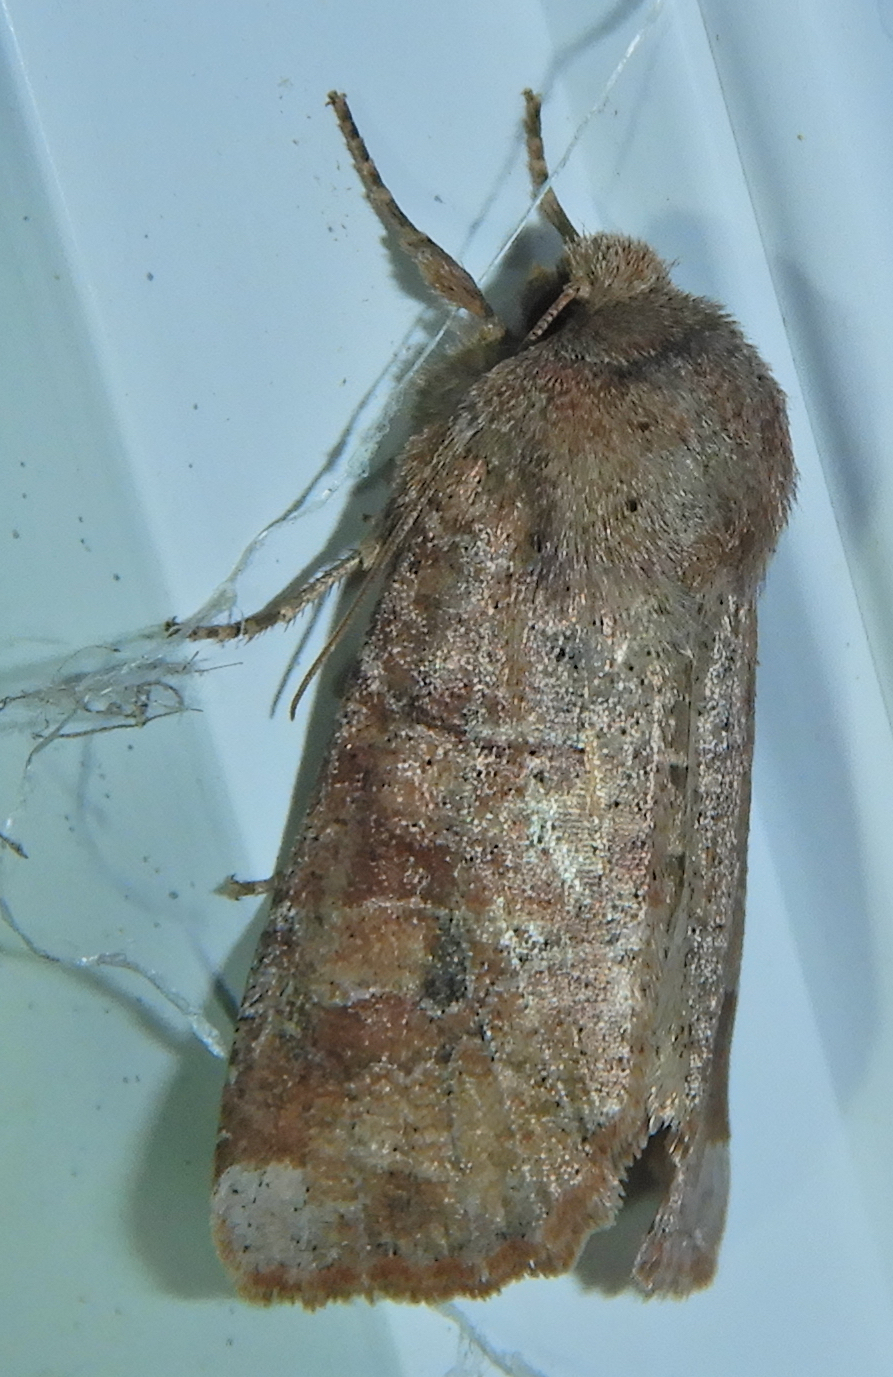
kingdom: Animalia
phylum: Arthropoda
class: Insecta
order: Lepidoptera
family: Noctuidae
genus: Crocigrapha
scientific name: Crocigrapha normani
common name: Norman's quaker
